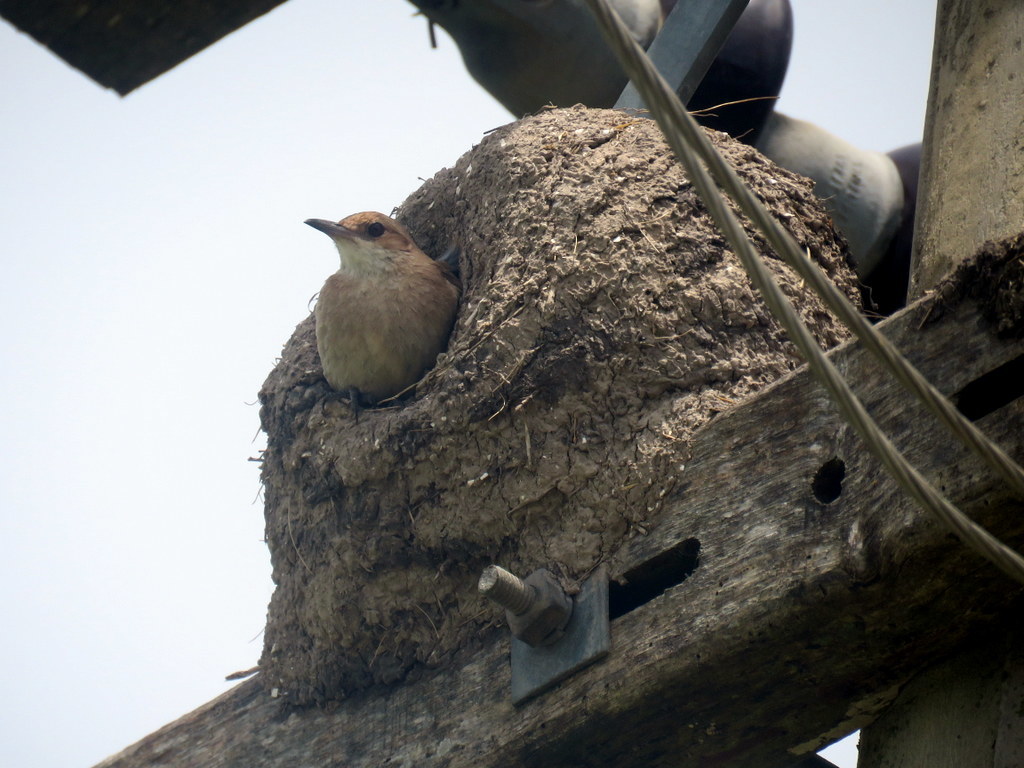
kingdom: Animalia
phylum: Chordata
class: Aves
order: Passeriformes
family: Furnariidae
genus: Furnarius
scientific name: Furnarius rufus
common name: Rufous hornero
